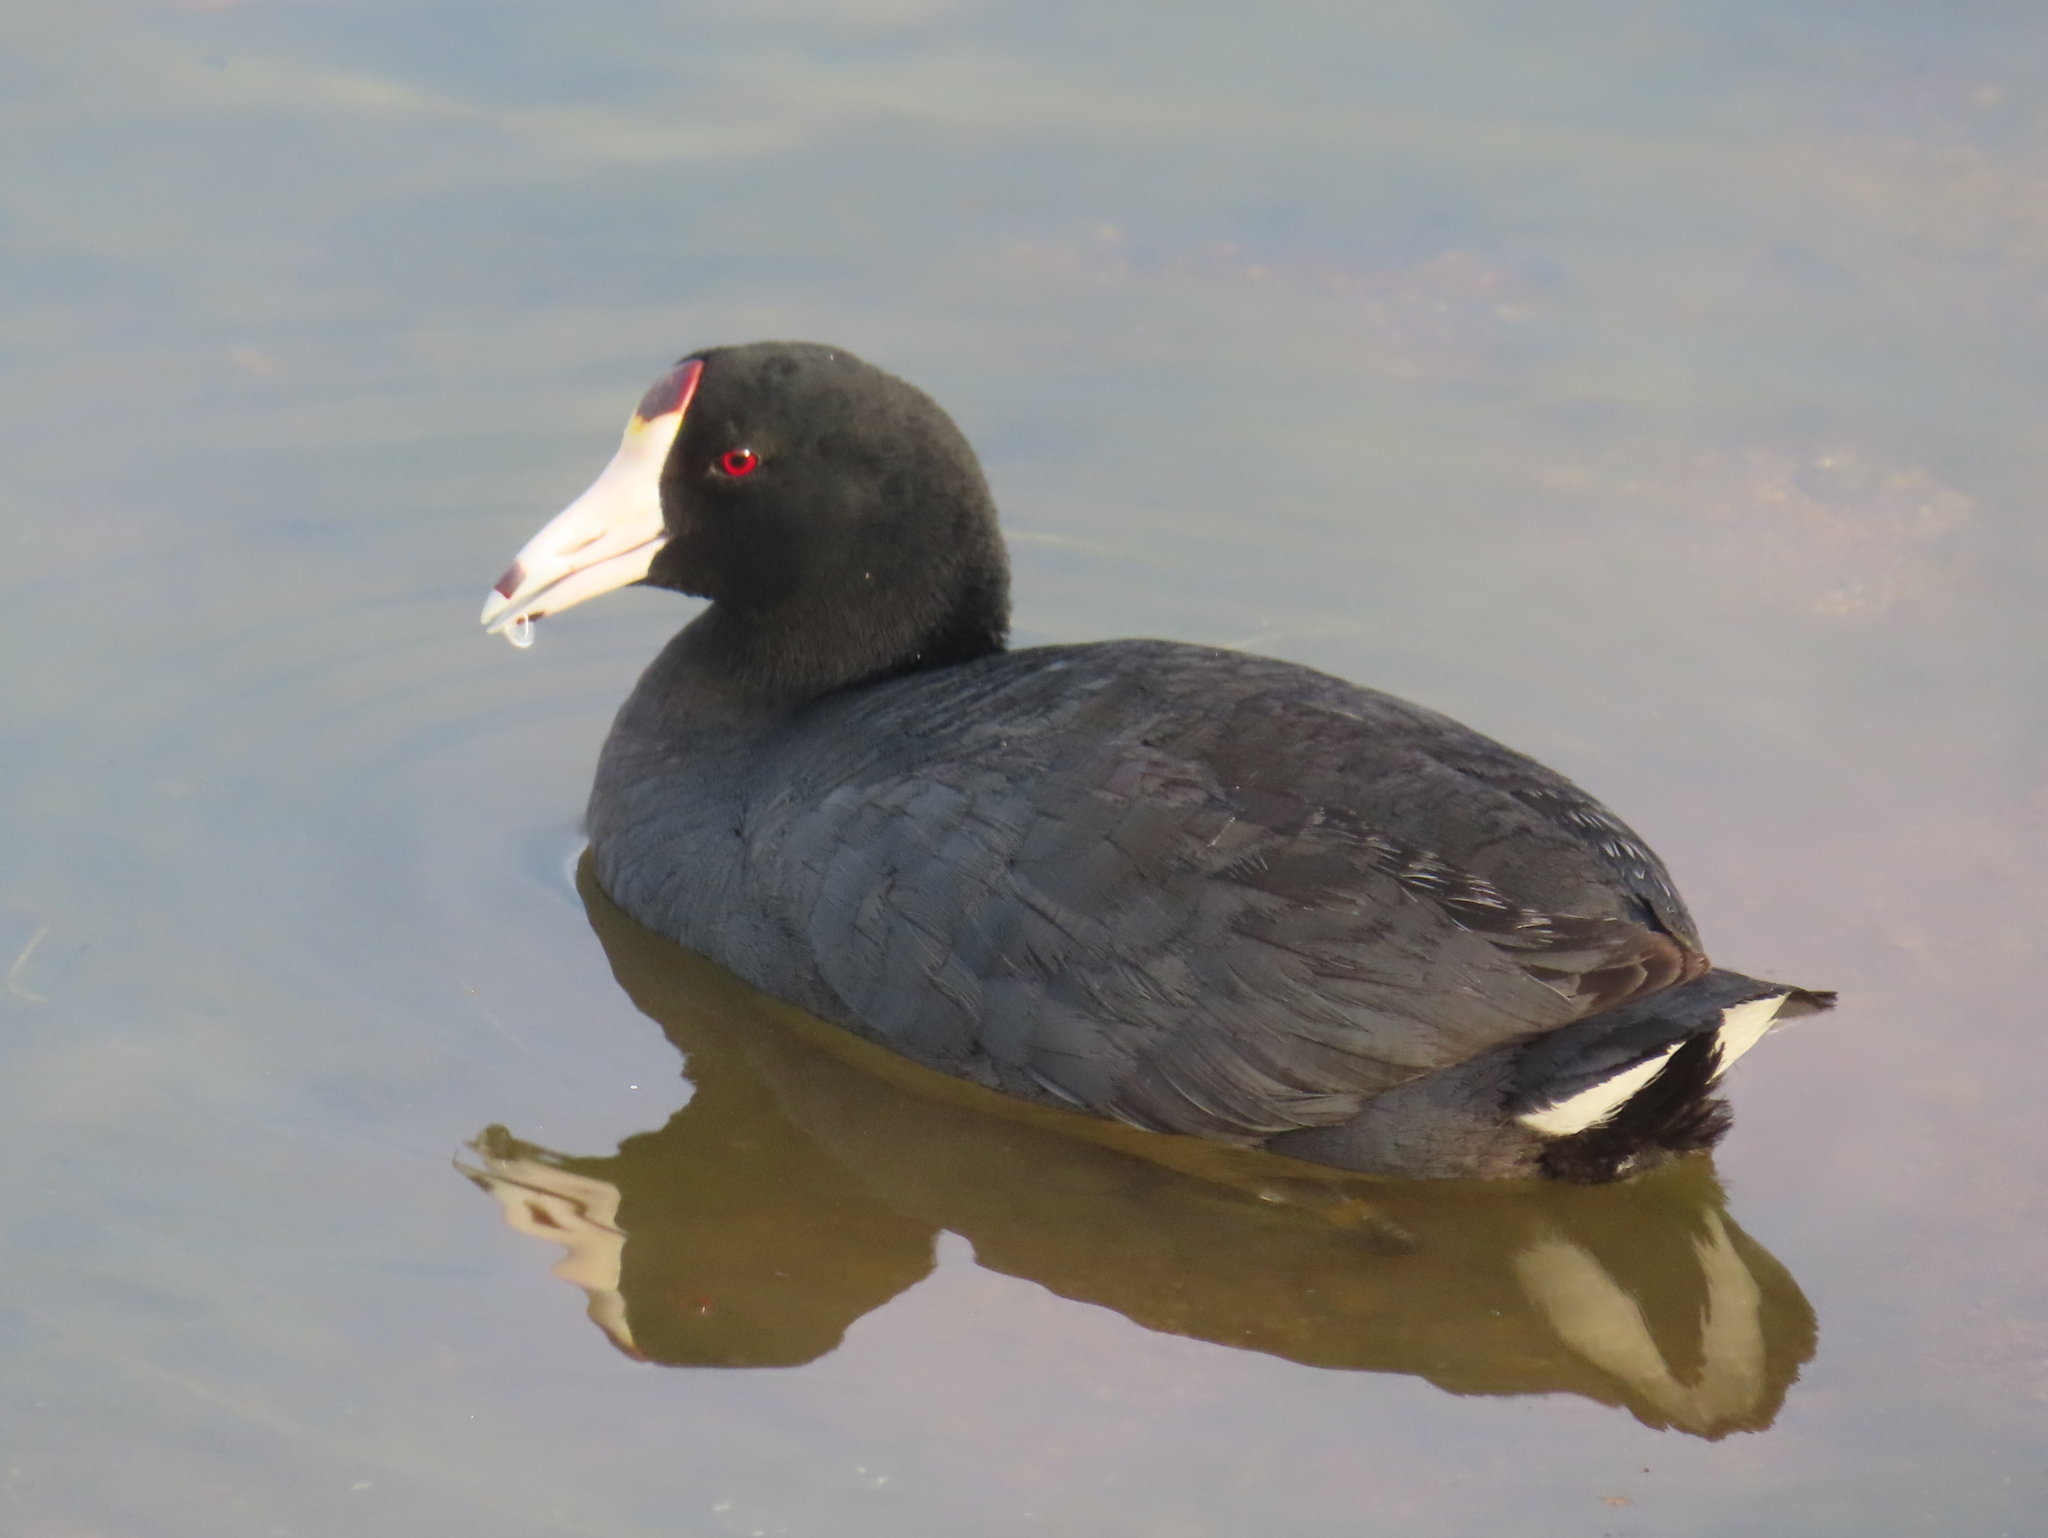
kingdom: Animalia
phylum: Chordata
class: Aves
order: Gruiformes
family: Rallidae
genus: Fulica
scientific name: Fulica americana
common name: American coot
